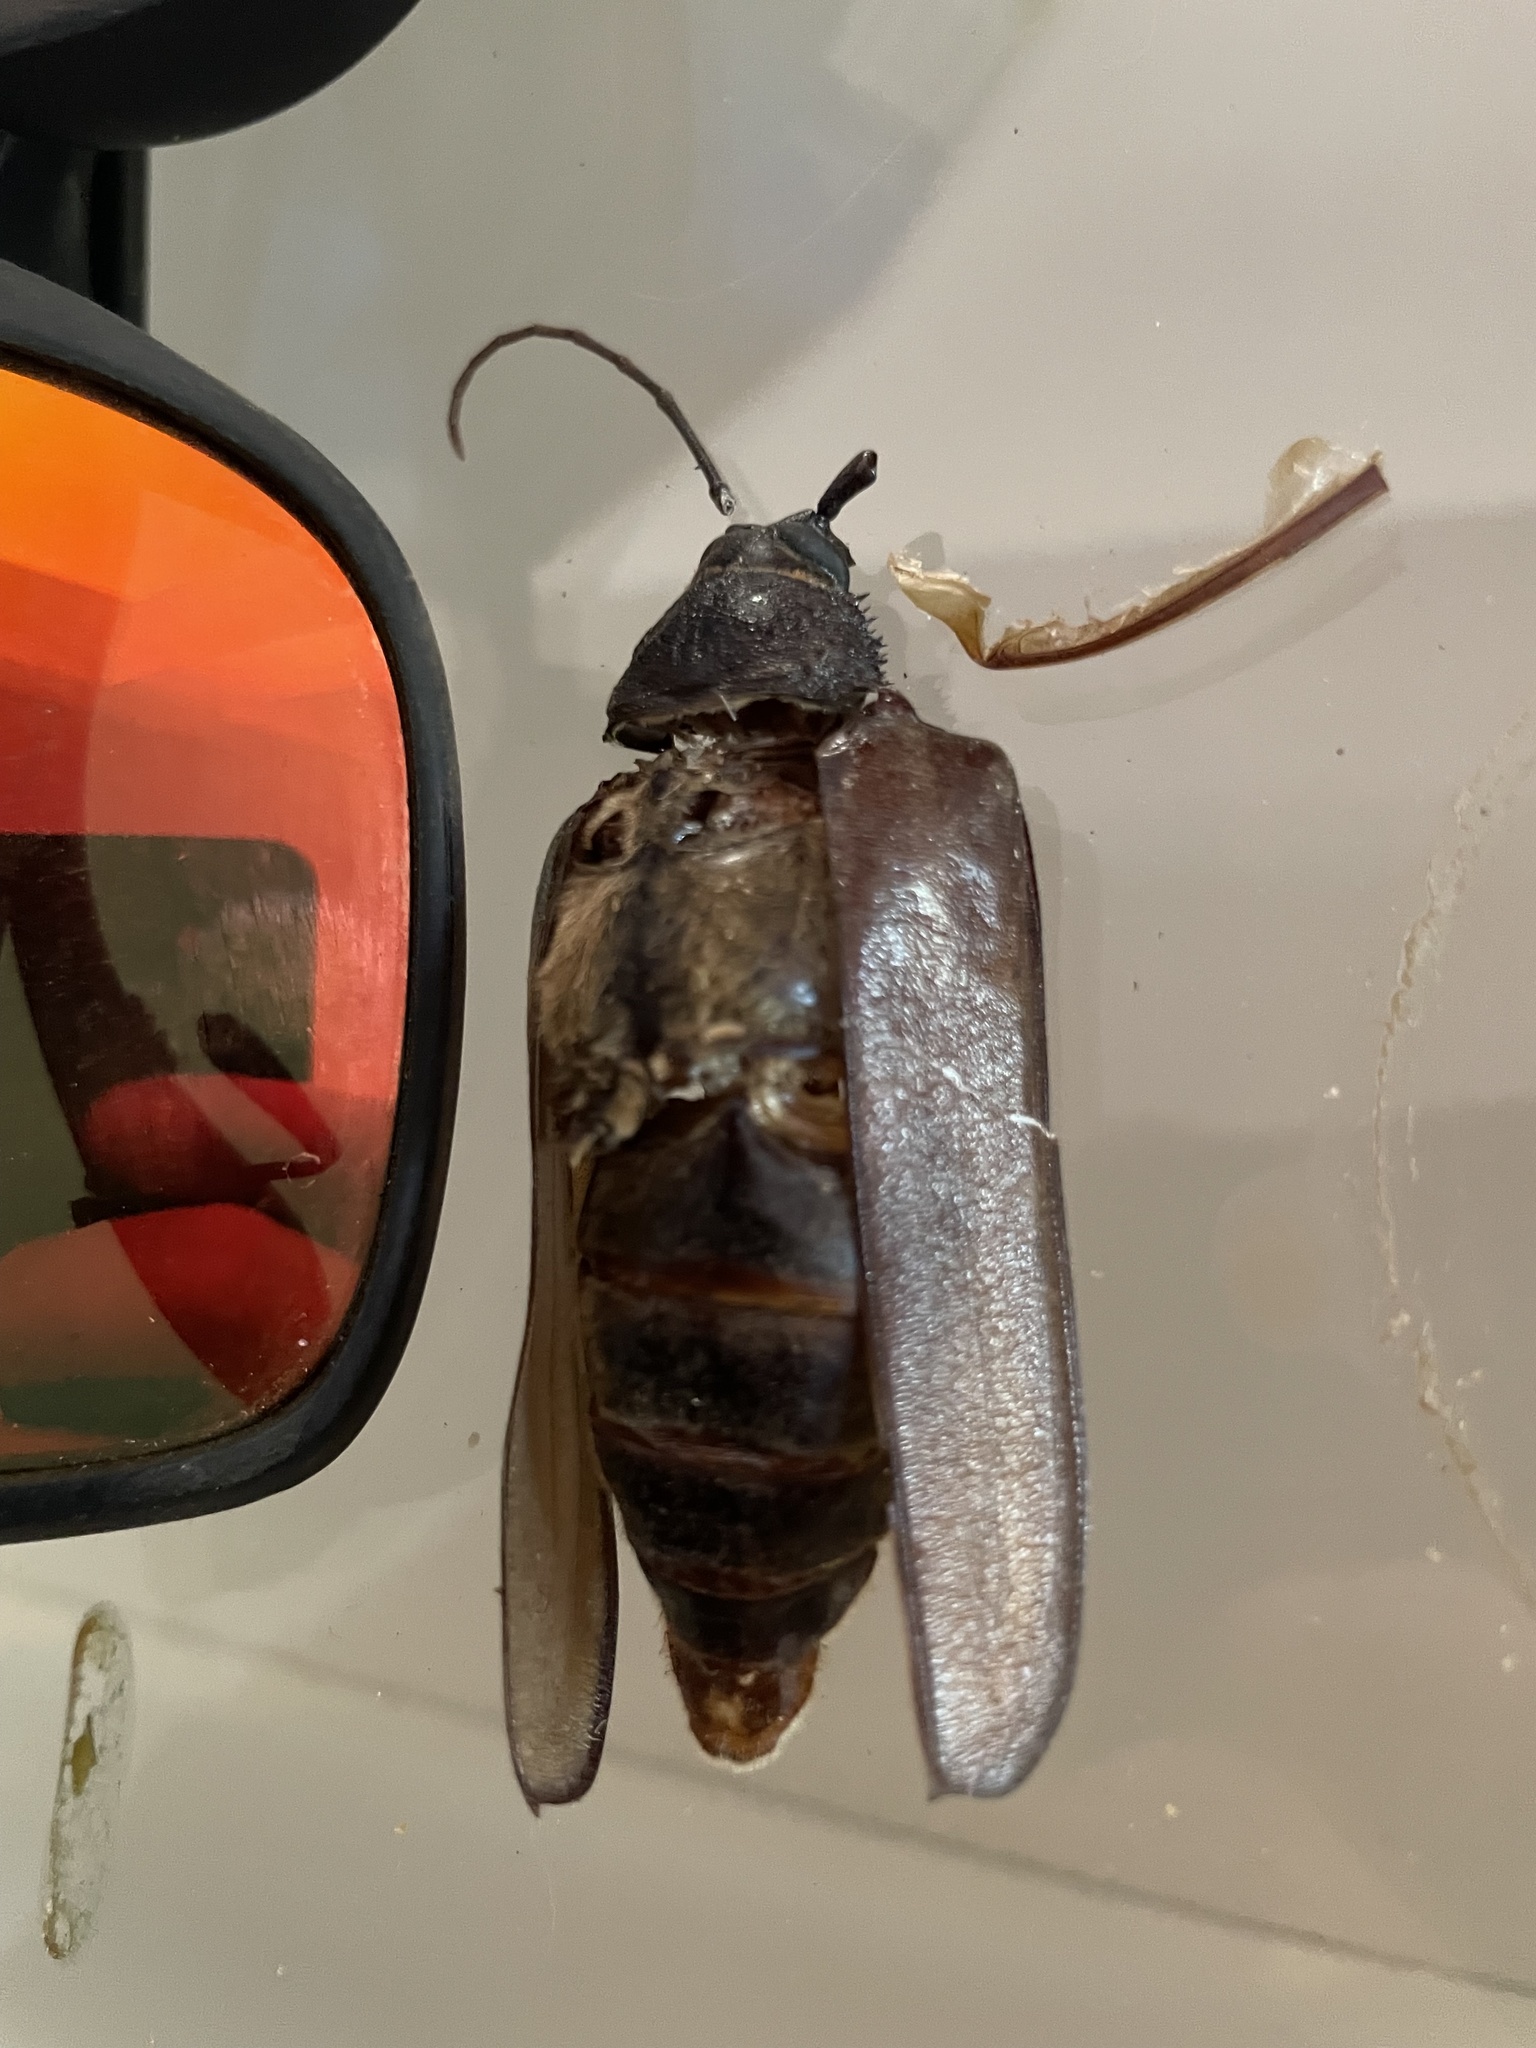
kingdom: Animalia
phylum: Arthropoda
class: Insecta
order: Coleoptera
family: Cerambycidae
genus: Trichocnemis
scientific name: Trichocnemis spiculatus
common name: Long-horned beetle
